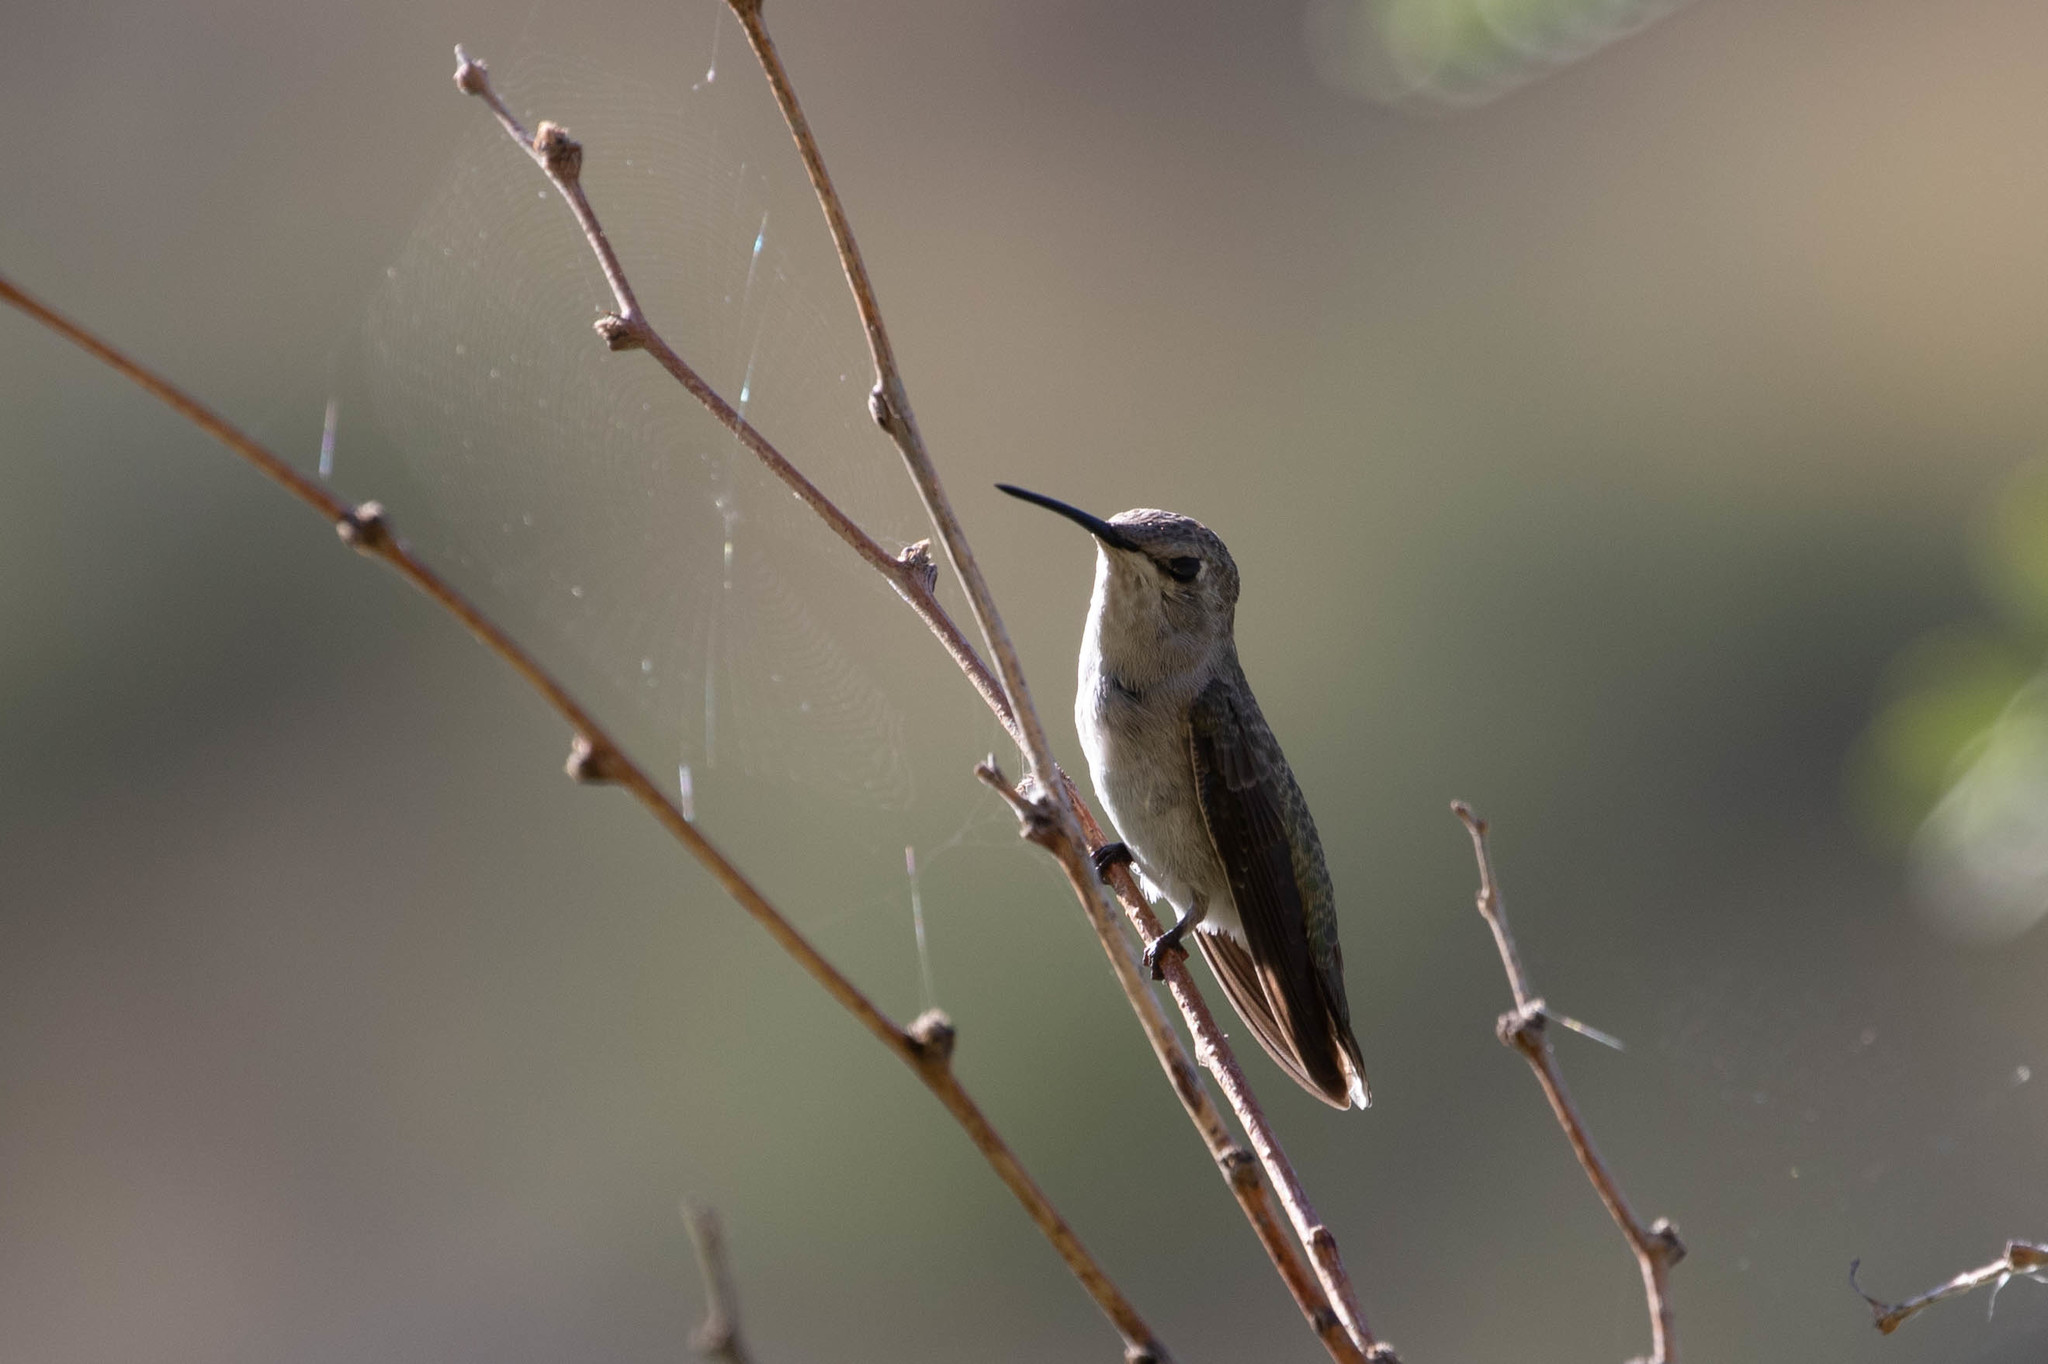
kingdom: Animalia
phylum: Chordata
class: Aves
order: Apodiformes
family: Trochilidae
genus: Calypte
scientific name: Calypte costae
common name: Costa's hummingbird
